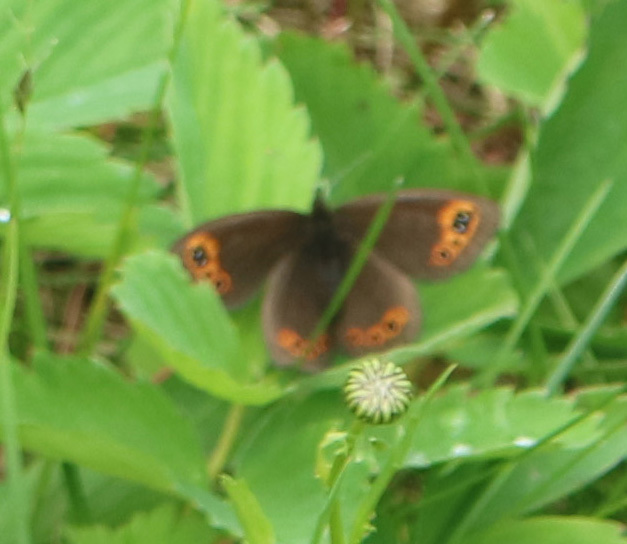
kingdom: Animalia
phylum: Arthropoda
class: Insecta
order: Lepidoptera
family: Nymphalidae
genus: Erebia
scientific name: Erebia epipsodea
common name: Common alpine
